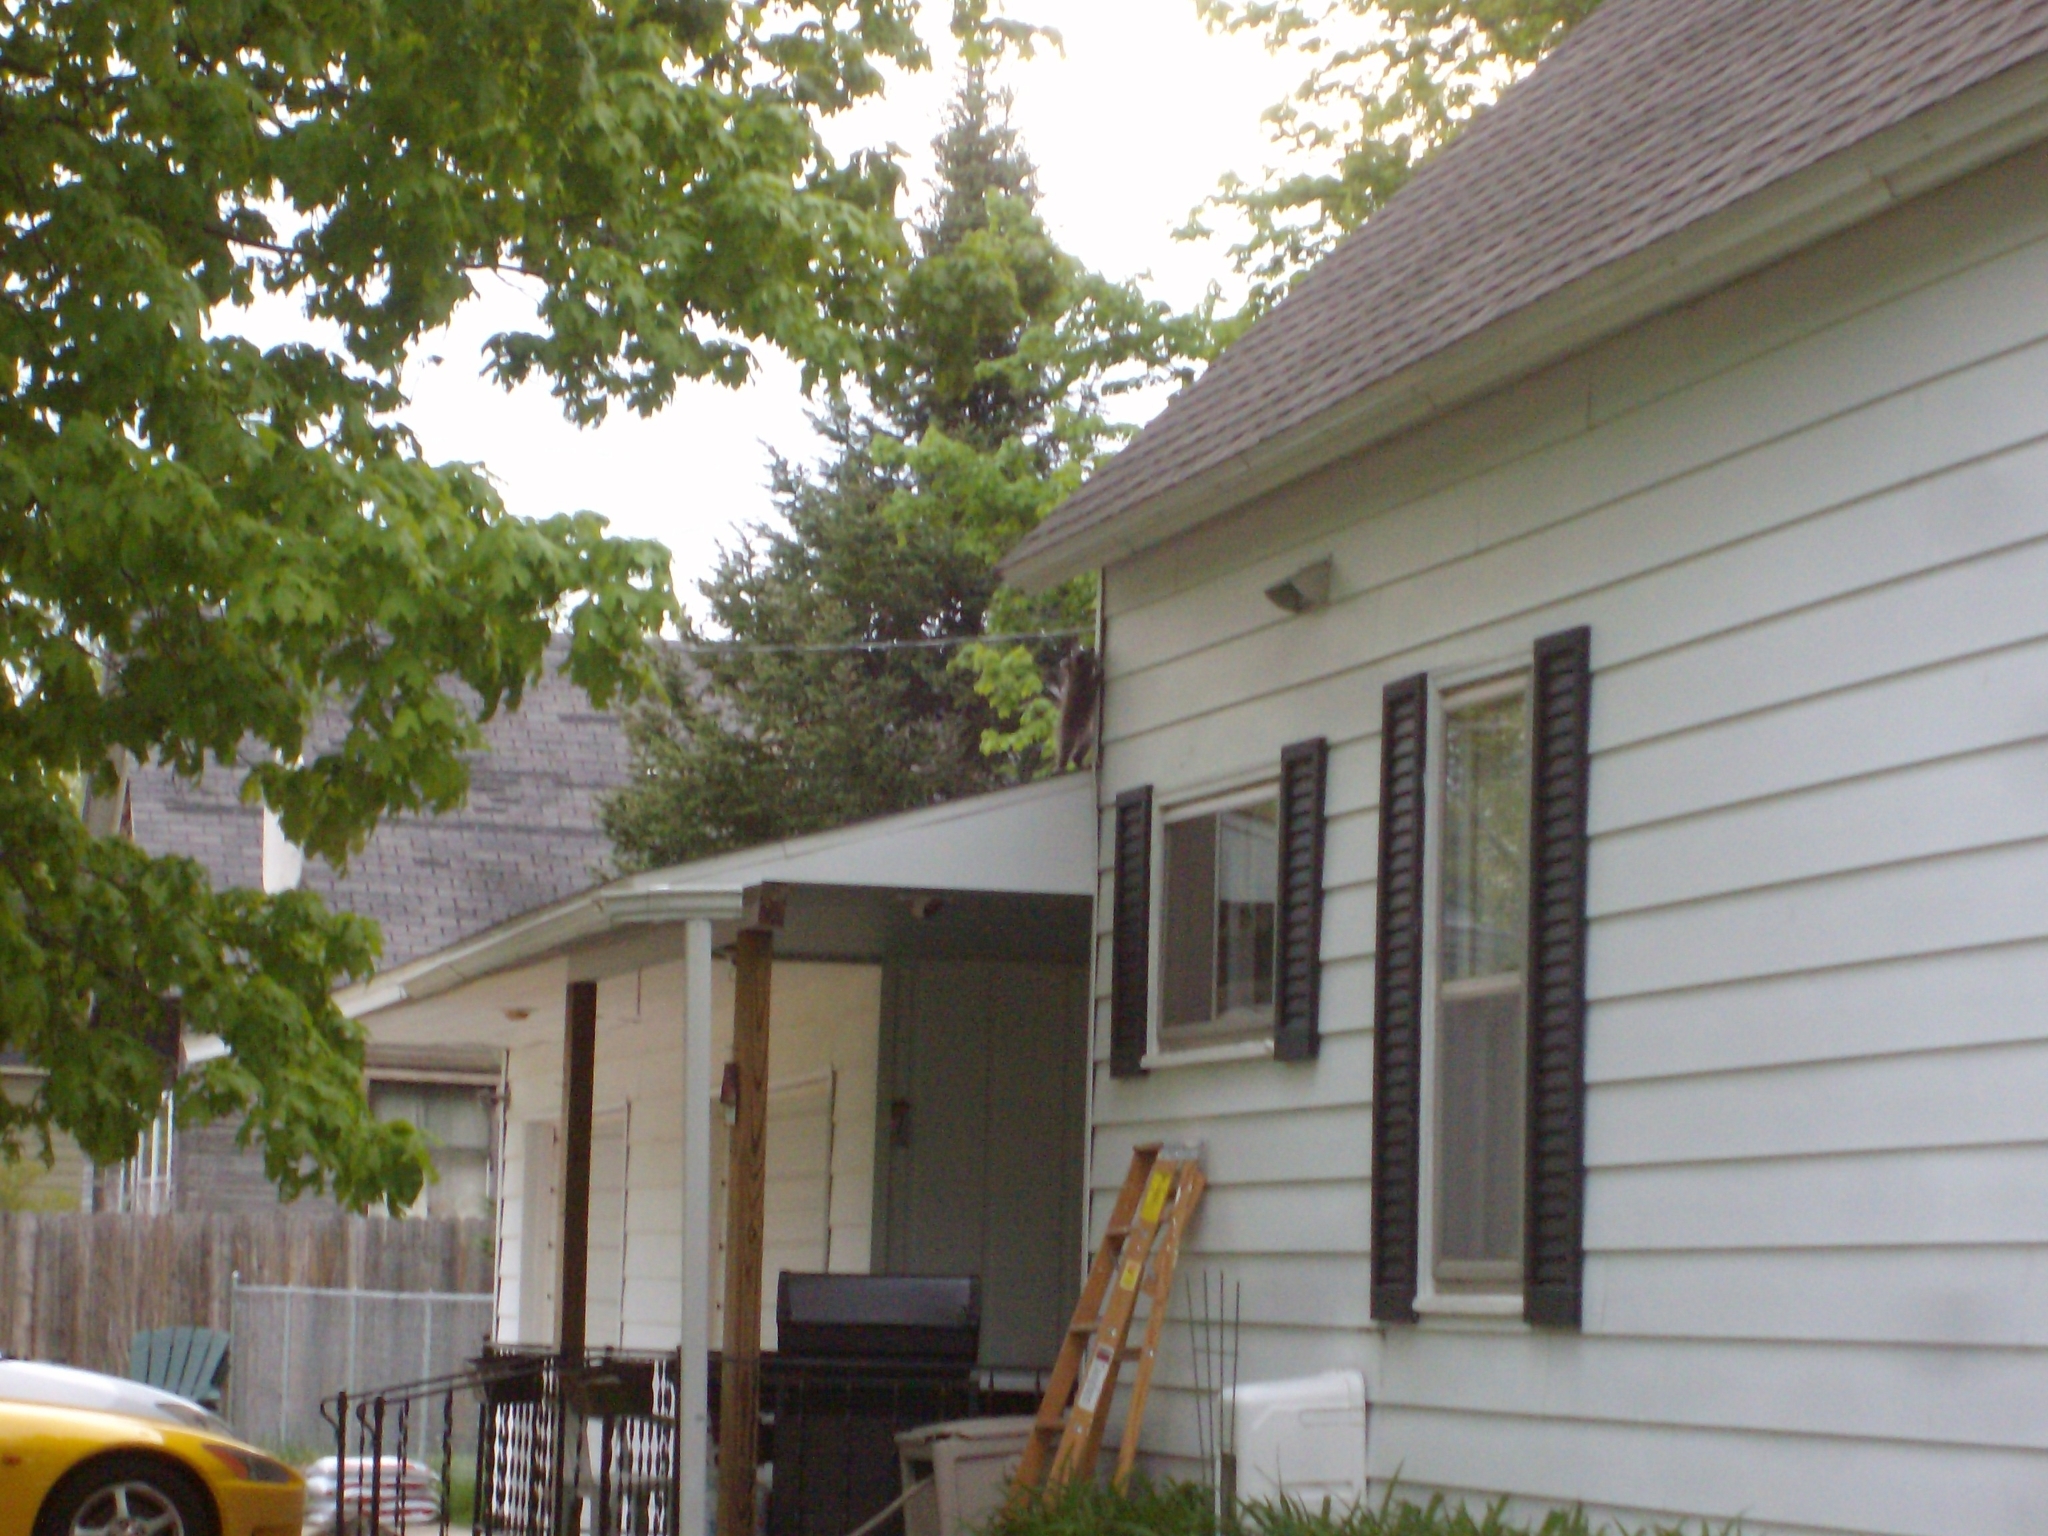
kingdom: Animalia
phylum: Chordata
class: Mammalia
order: Carnivora
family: Procyonidae
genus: Procyon
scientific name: Procyon lotor
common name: Raccoon
